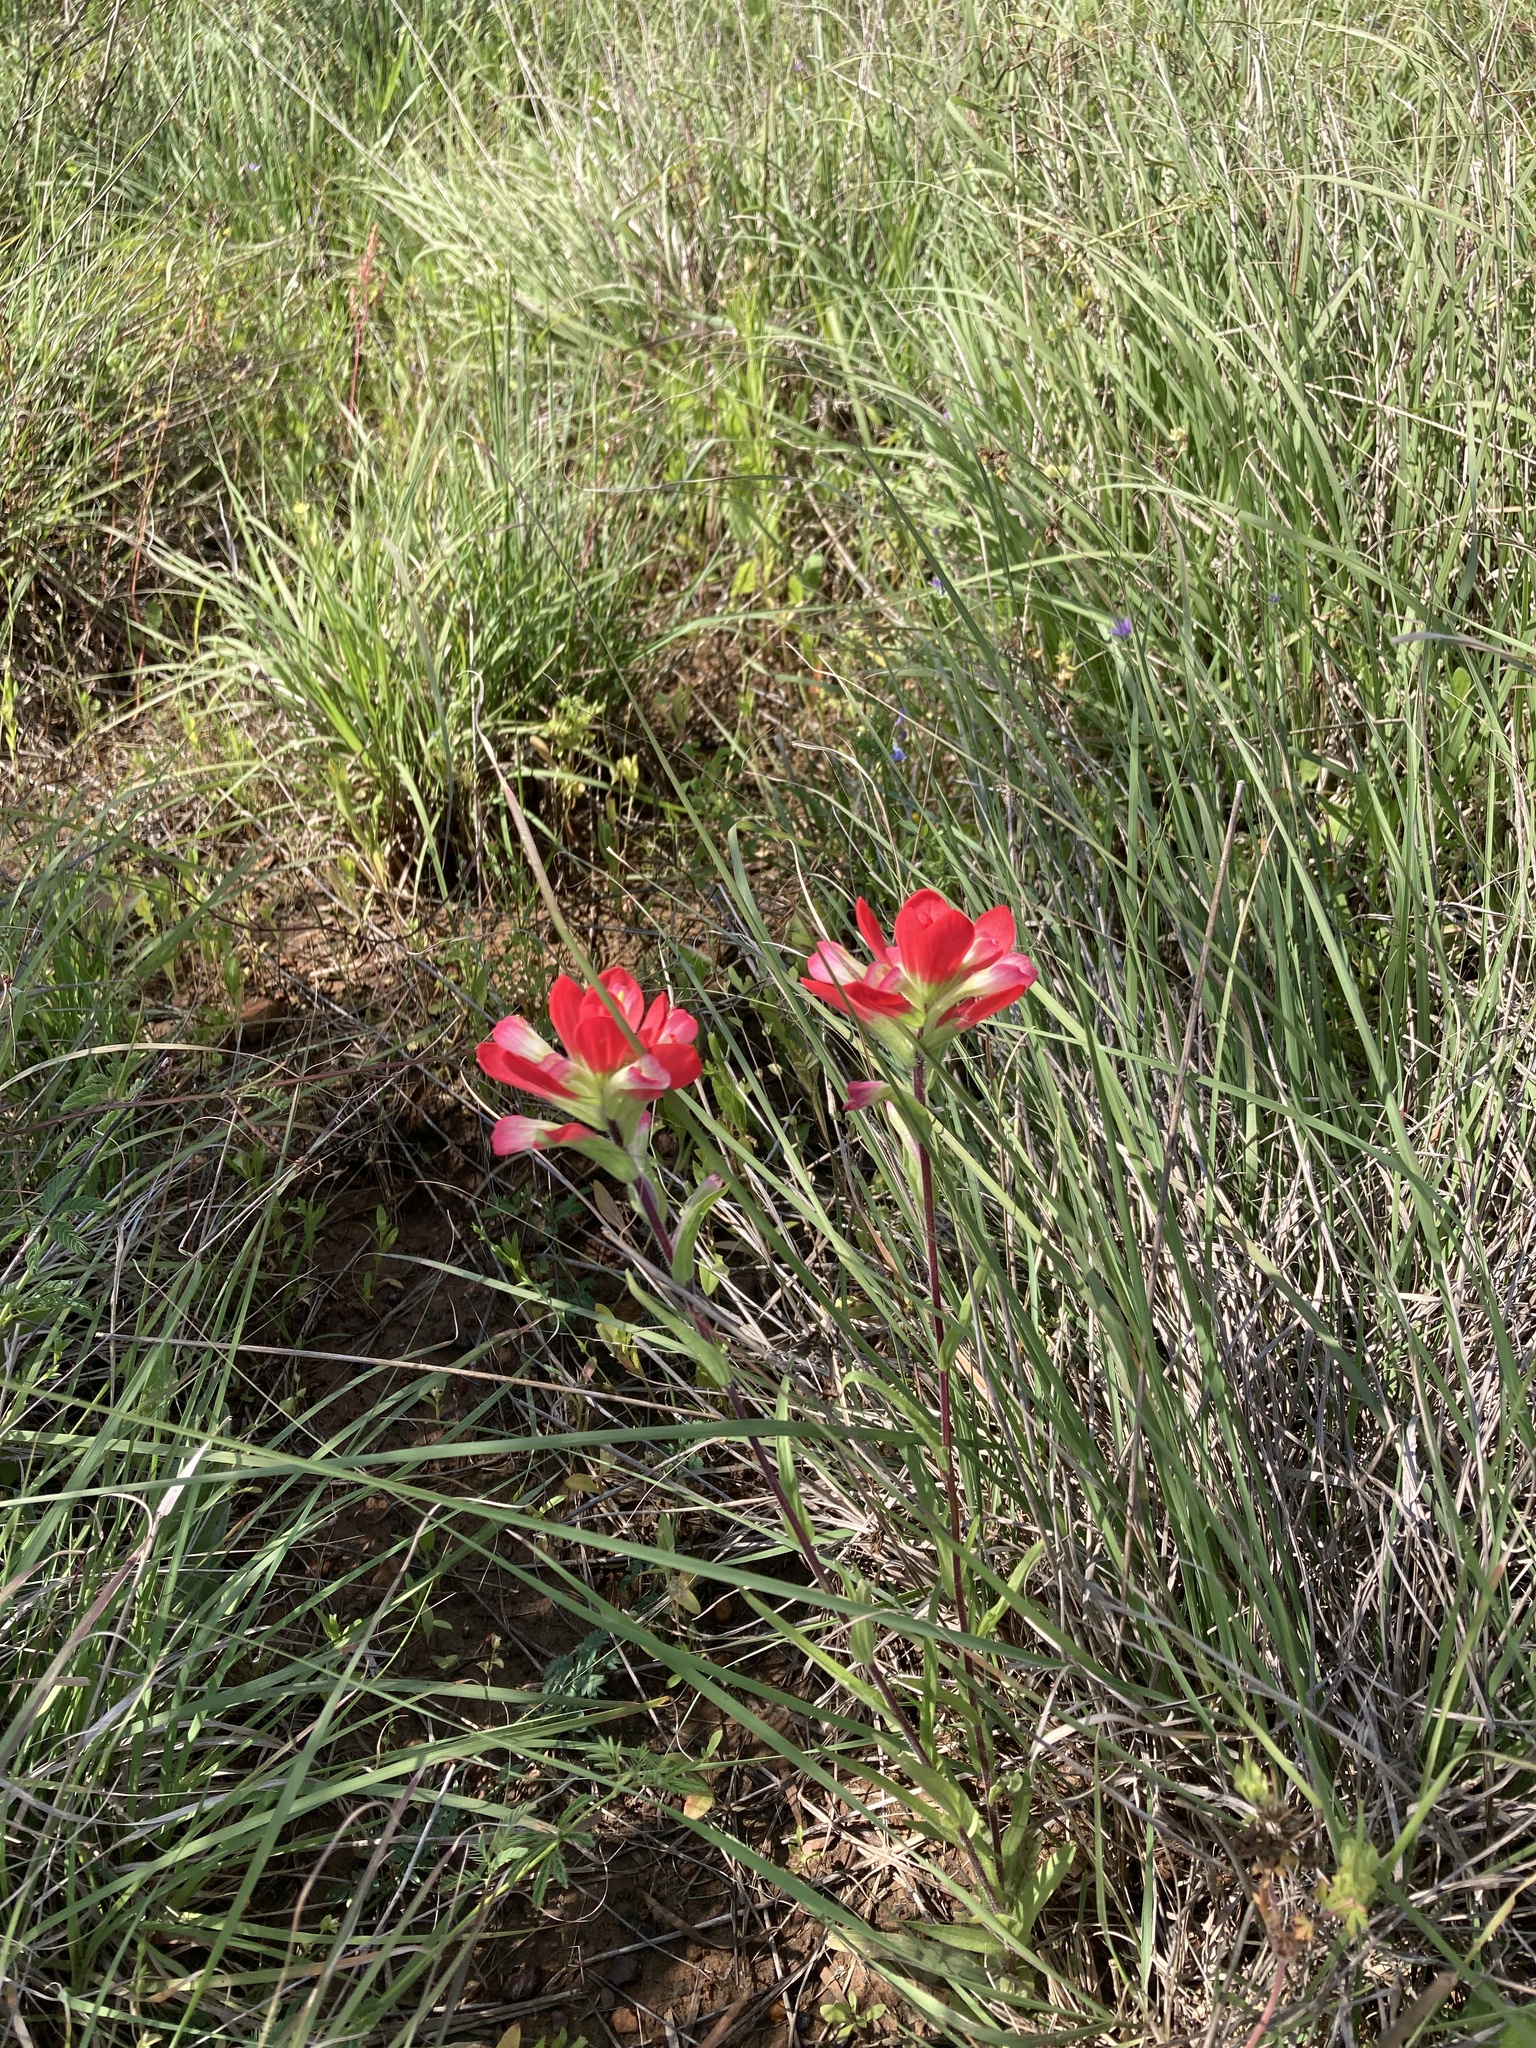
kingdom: Plantae
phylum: Tracheophyta
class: Magnoliopsida
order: Lamiales
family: Orobanchaceae
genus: Castilleja
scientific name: Castilleja indivisa
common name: Texas paintbrush
